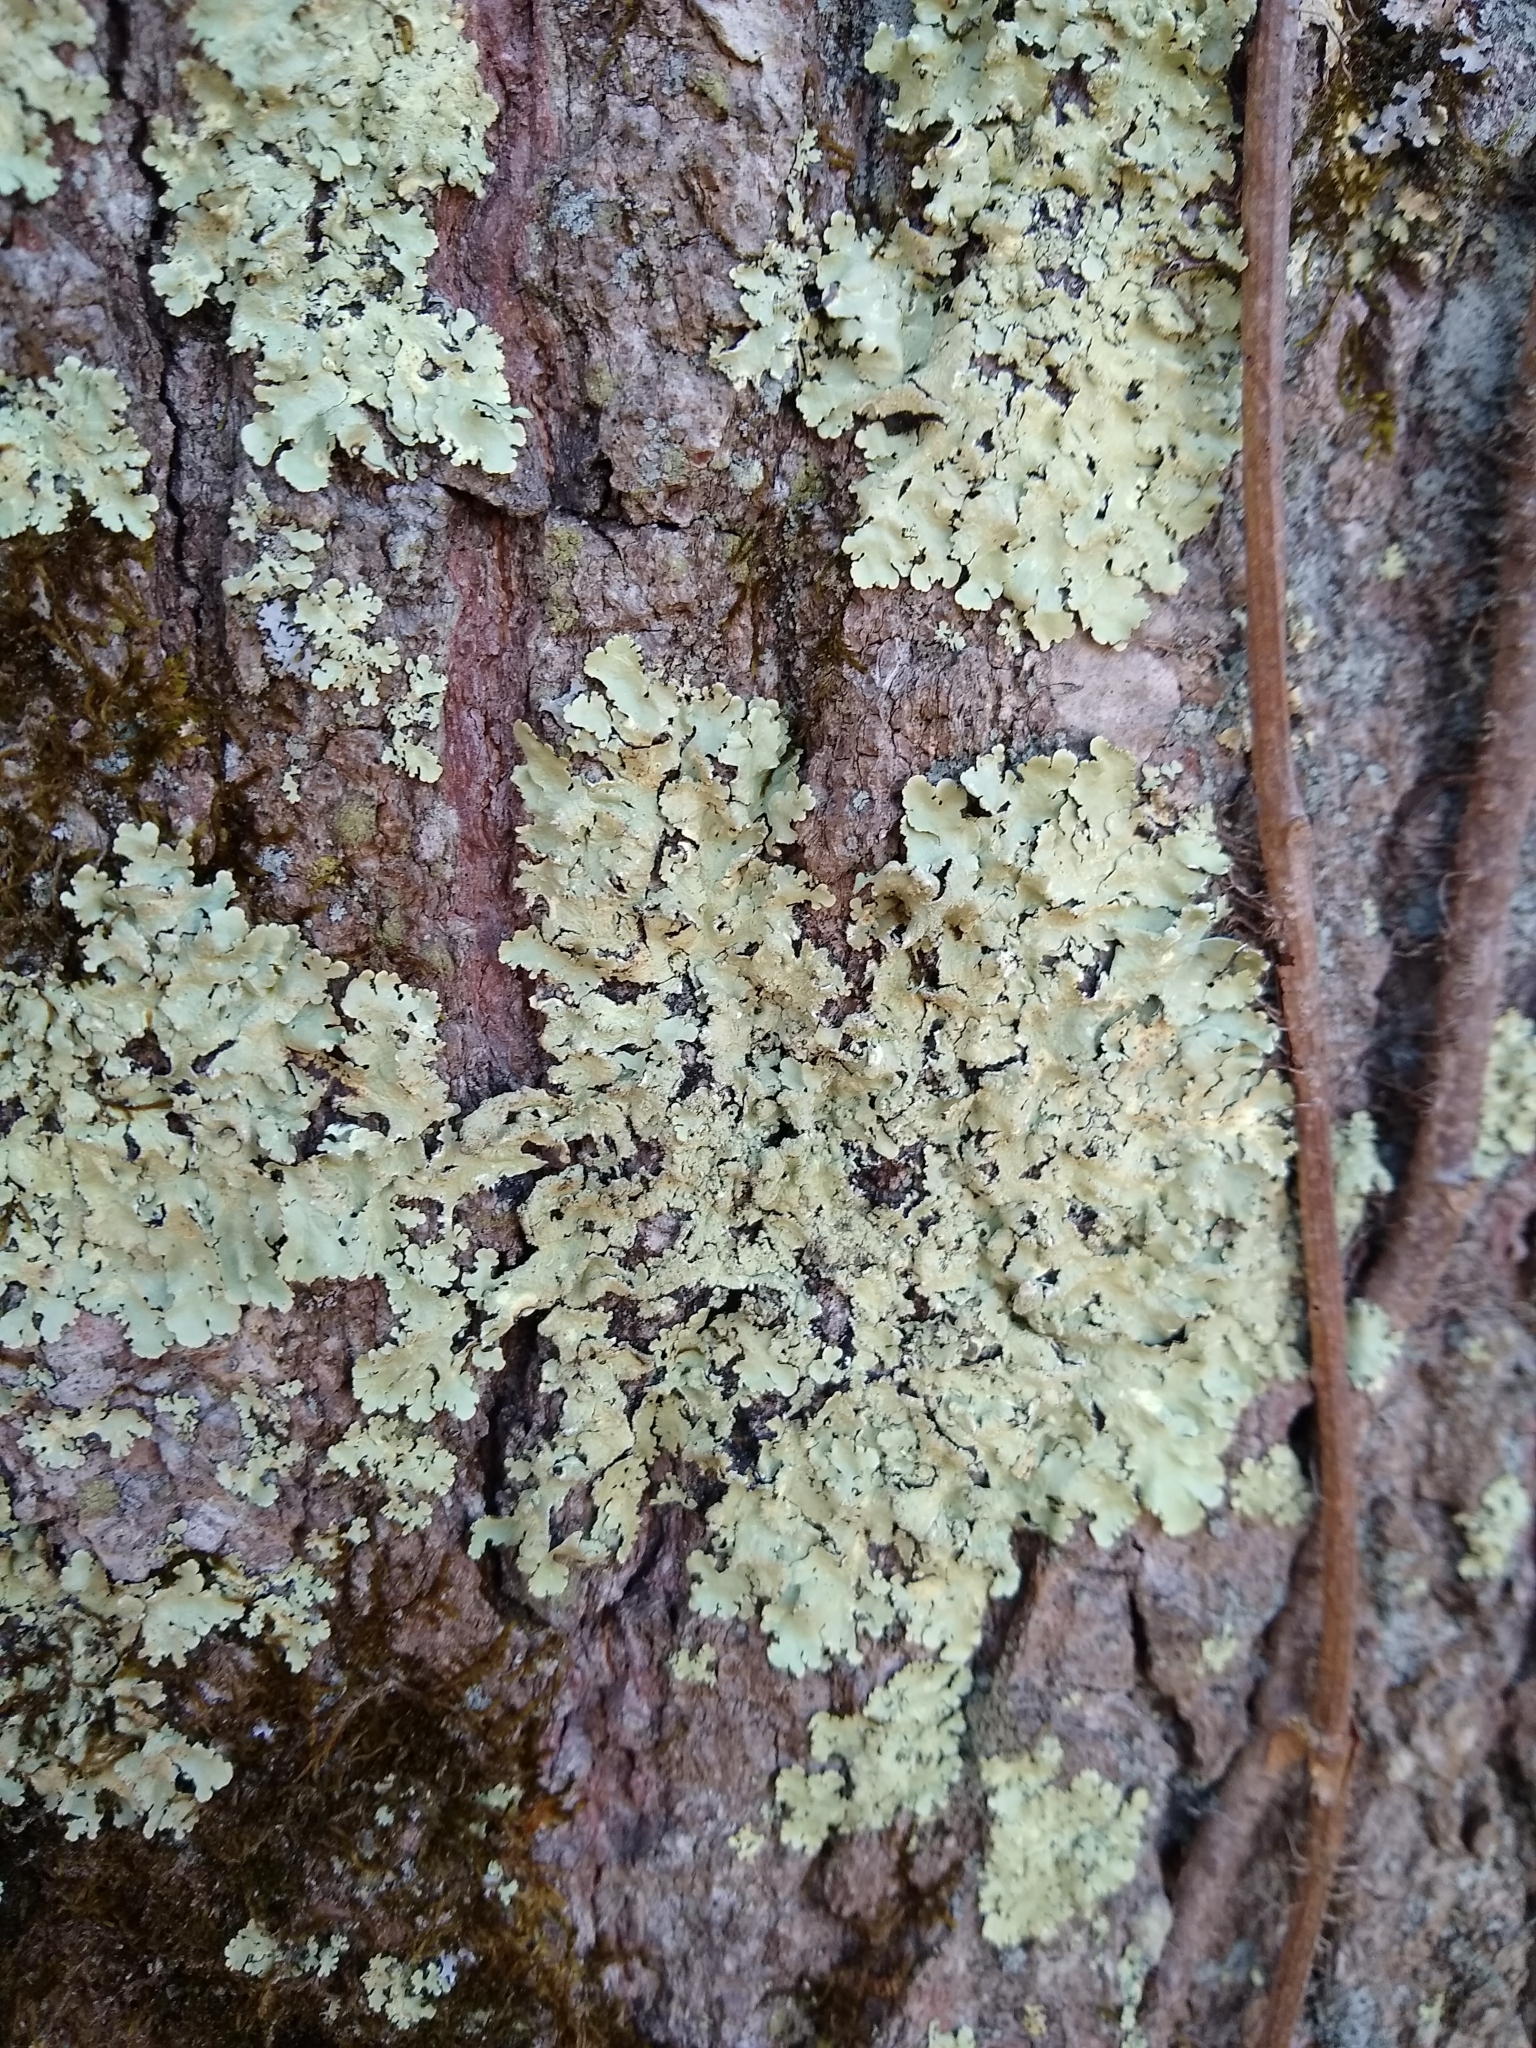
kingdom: Fungi
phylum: Ascomycota
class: Lecanoromycetes
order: Lecanorales
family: Parmeliaceae
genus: Flavoparmelia
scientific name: Flavoparmelia caperata
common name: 40-mile per hour lichen
